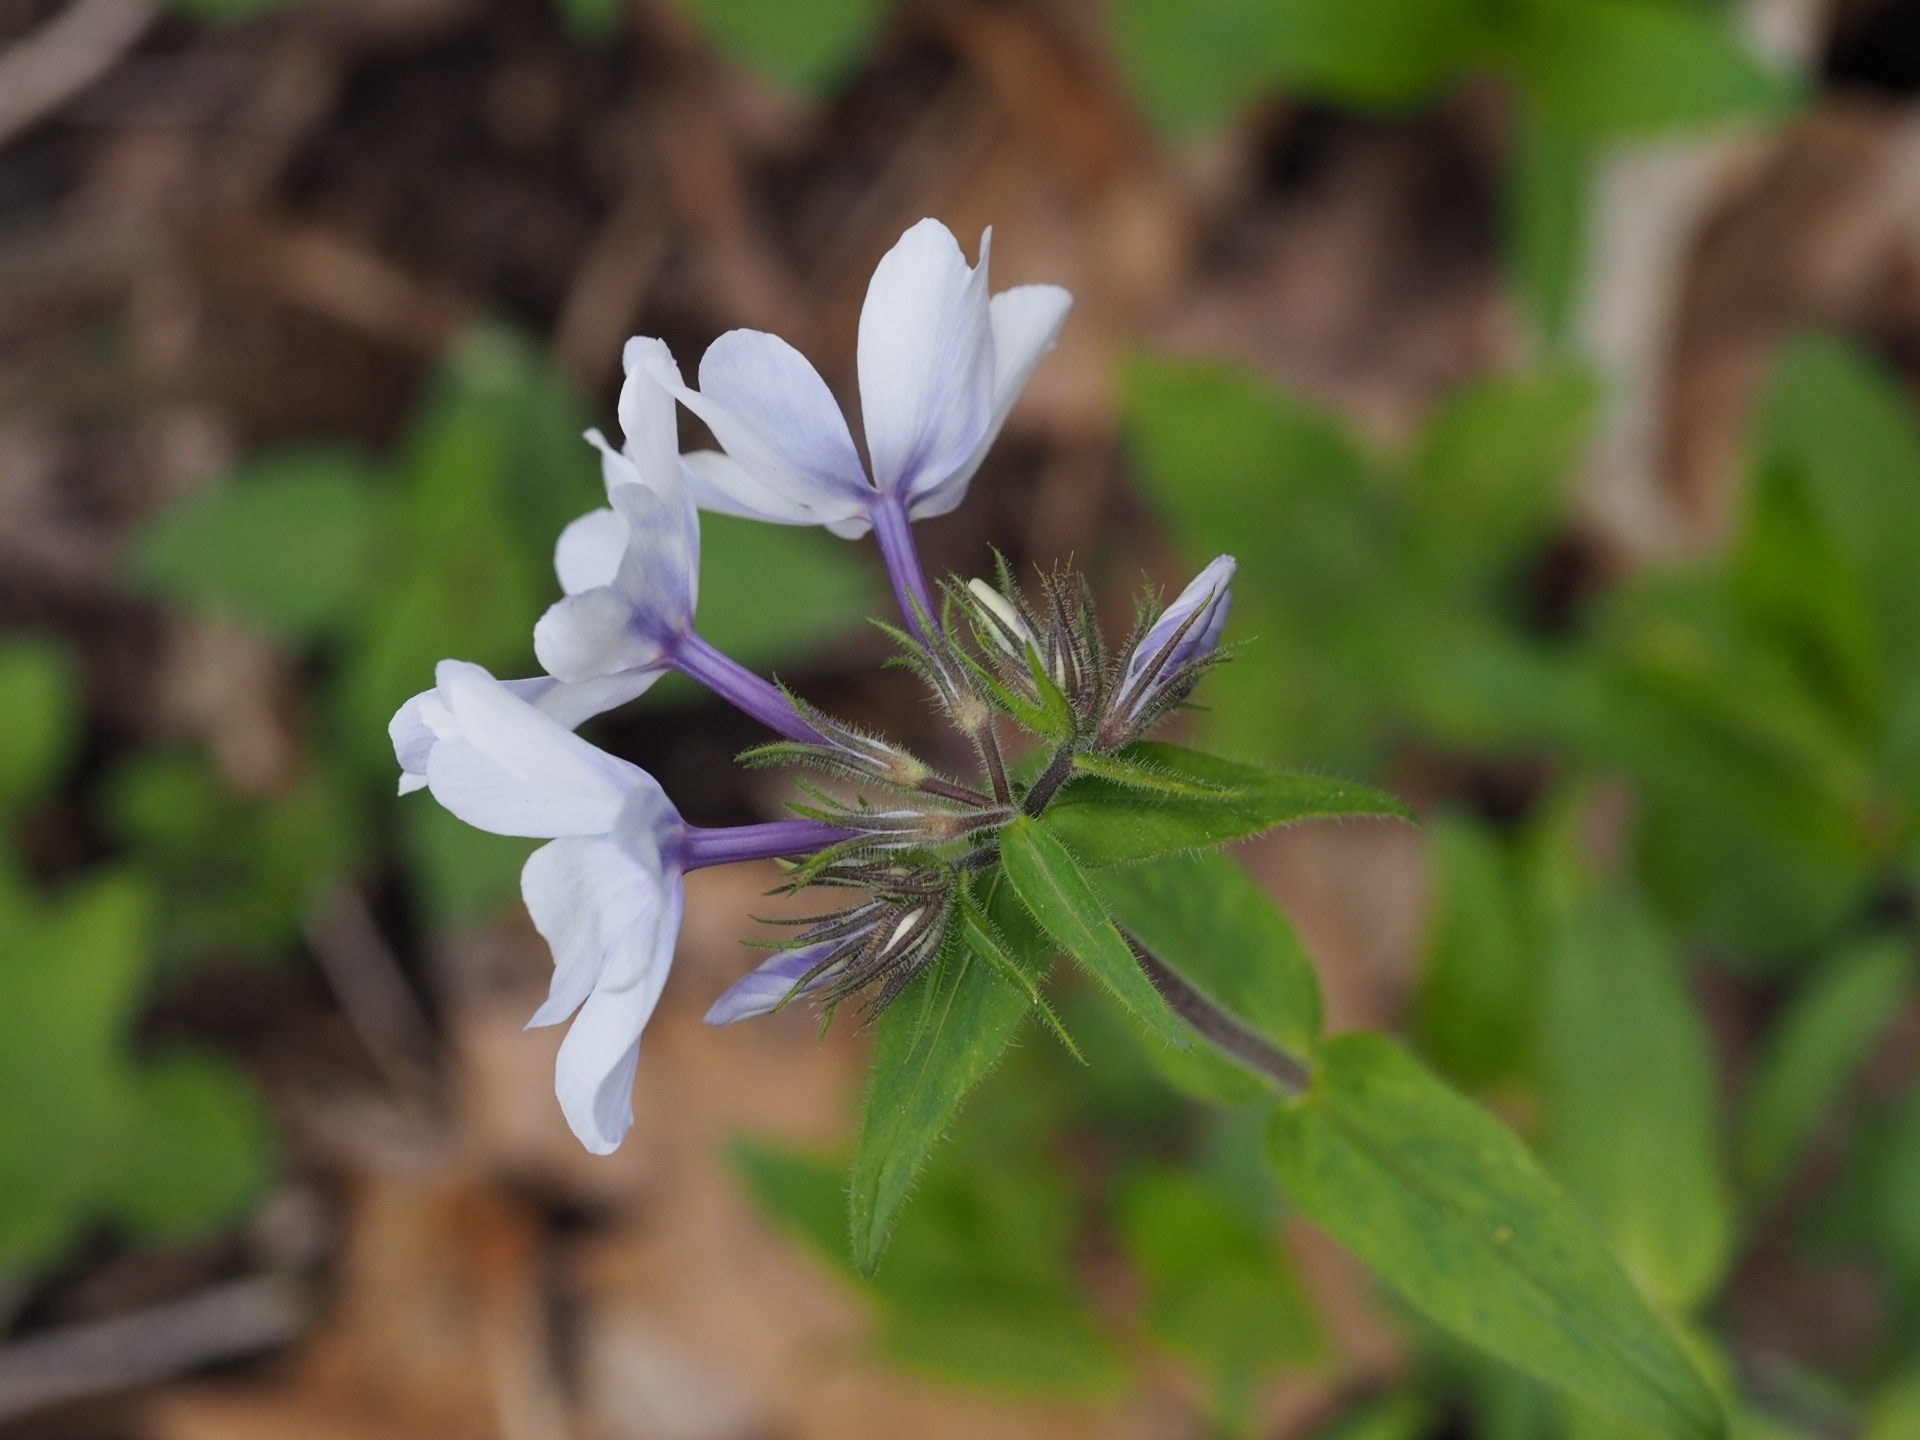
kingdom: Plantae
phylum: Tracheophyta
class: Magnoliopsida
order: Ericales
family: Polemoniaceae
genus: Phlox
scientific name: Phlox divaricata
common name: Blue phlox
